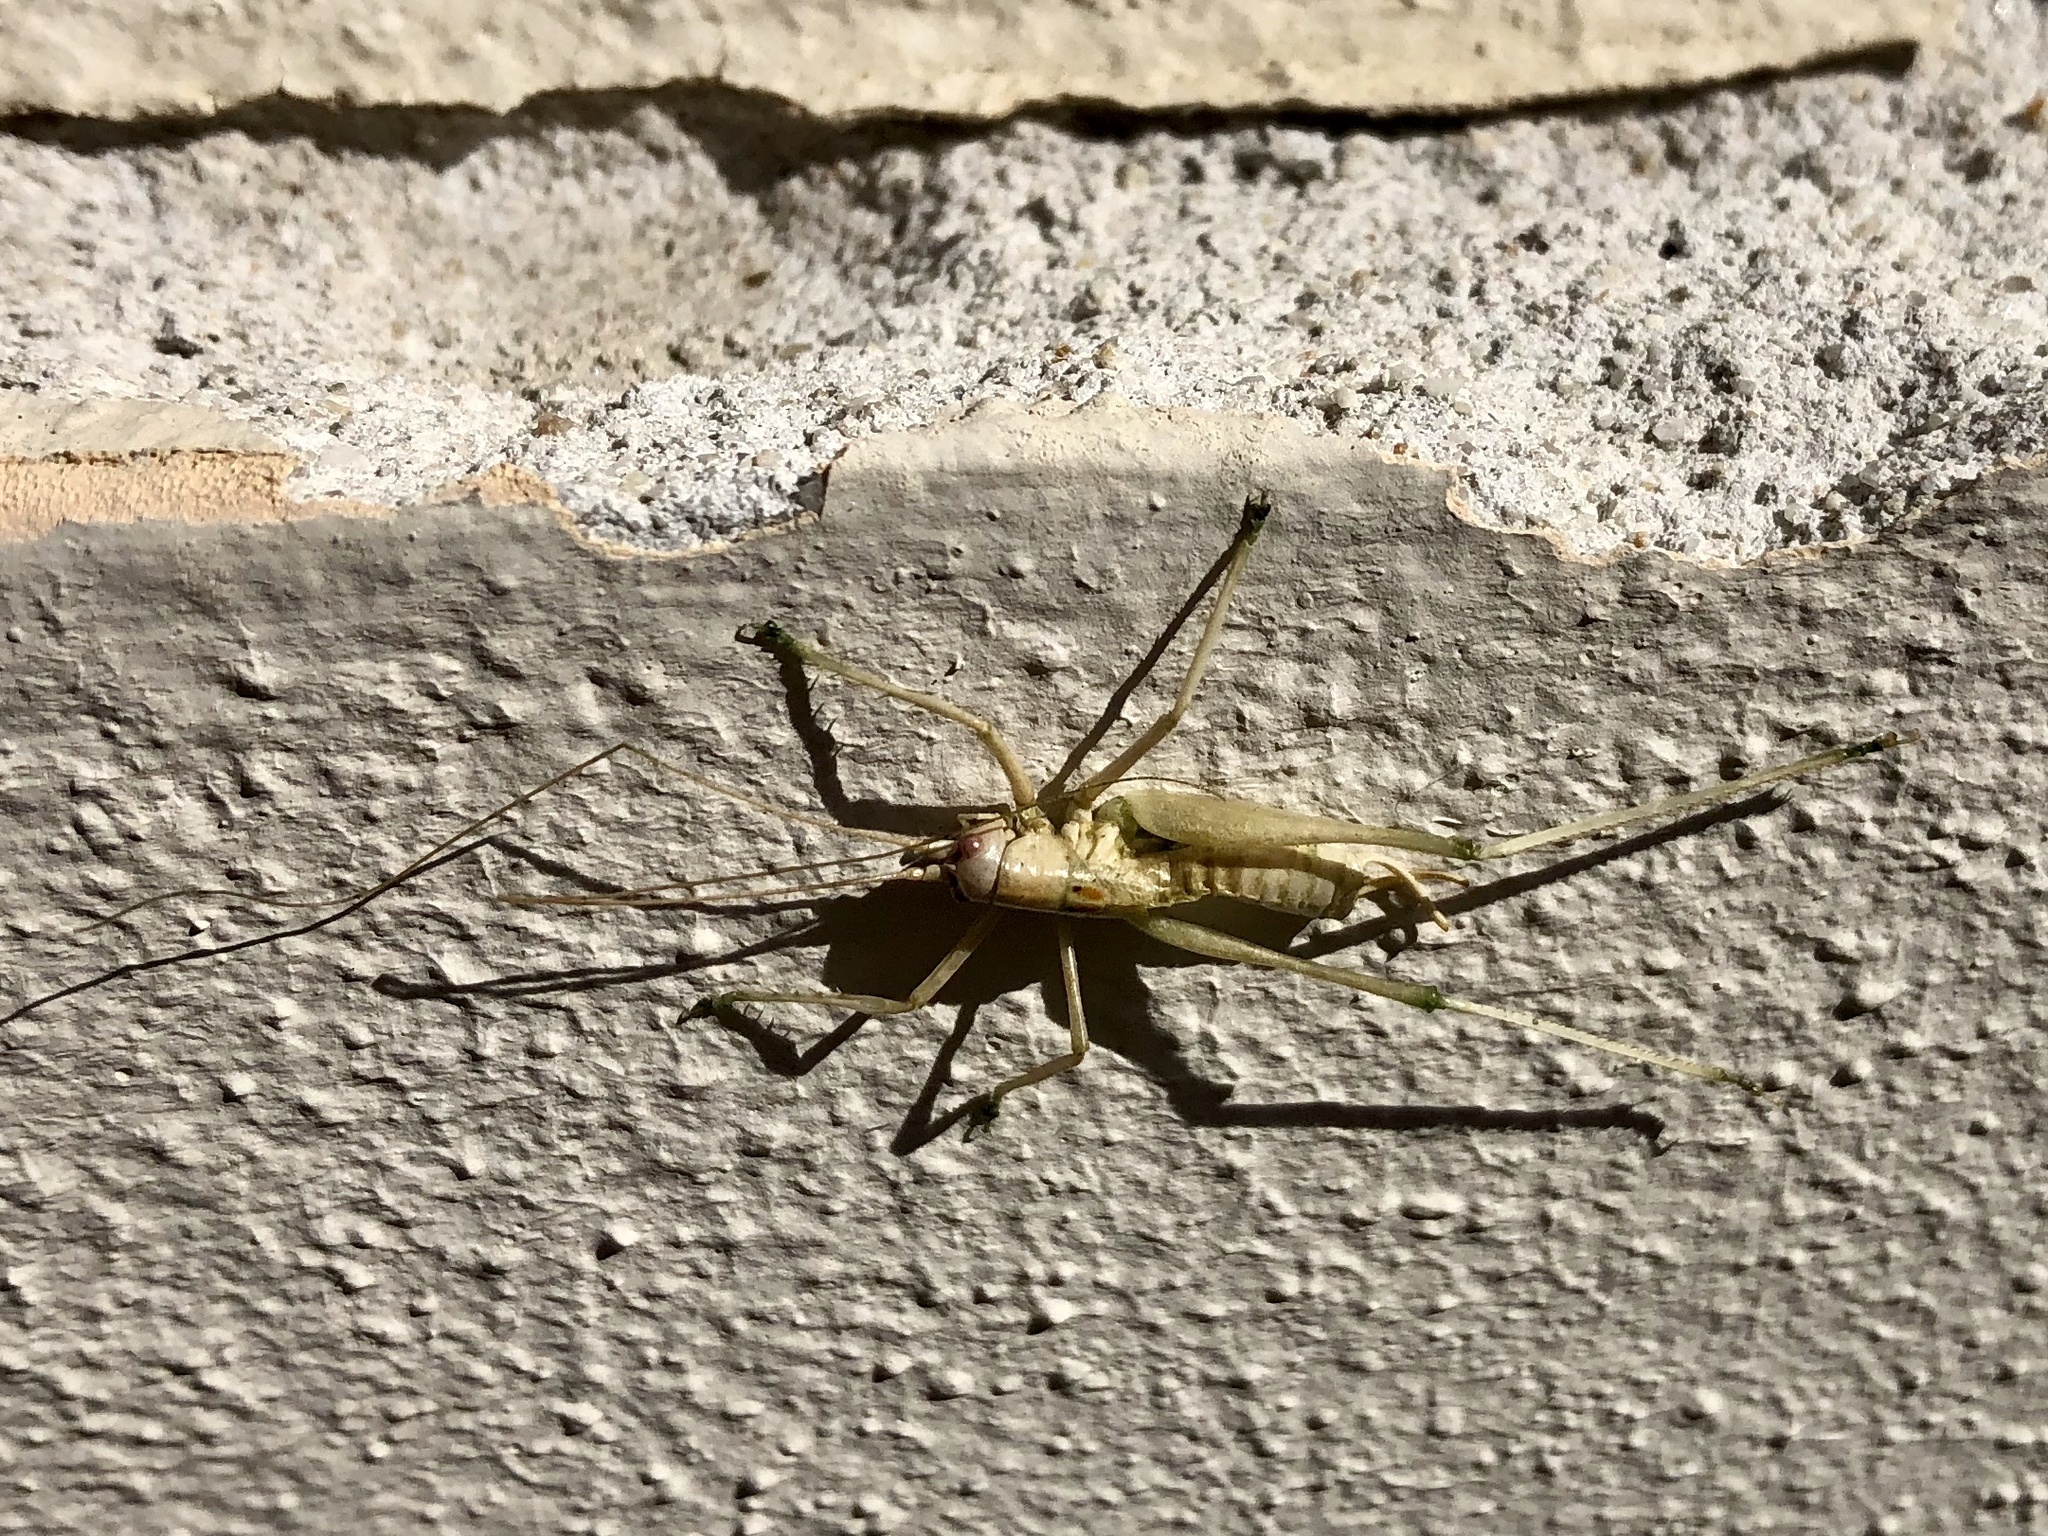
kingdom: Animalia
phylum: Arthropoda
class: Insecta
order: Orthoptera
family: Tettigoniidae
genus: Meconema
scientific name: Meconema meridionale
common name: Southern oak bush-cricket
